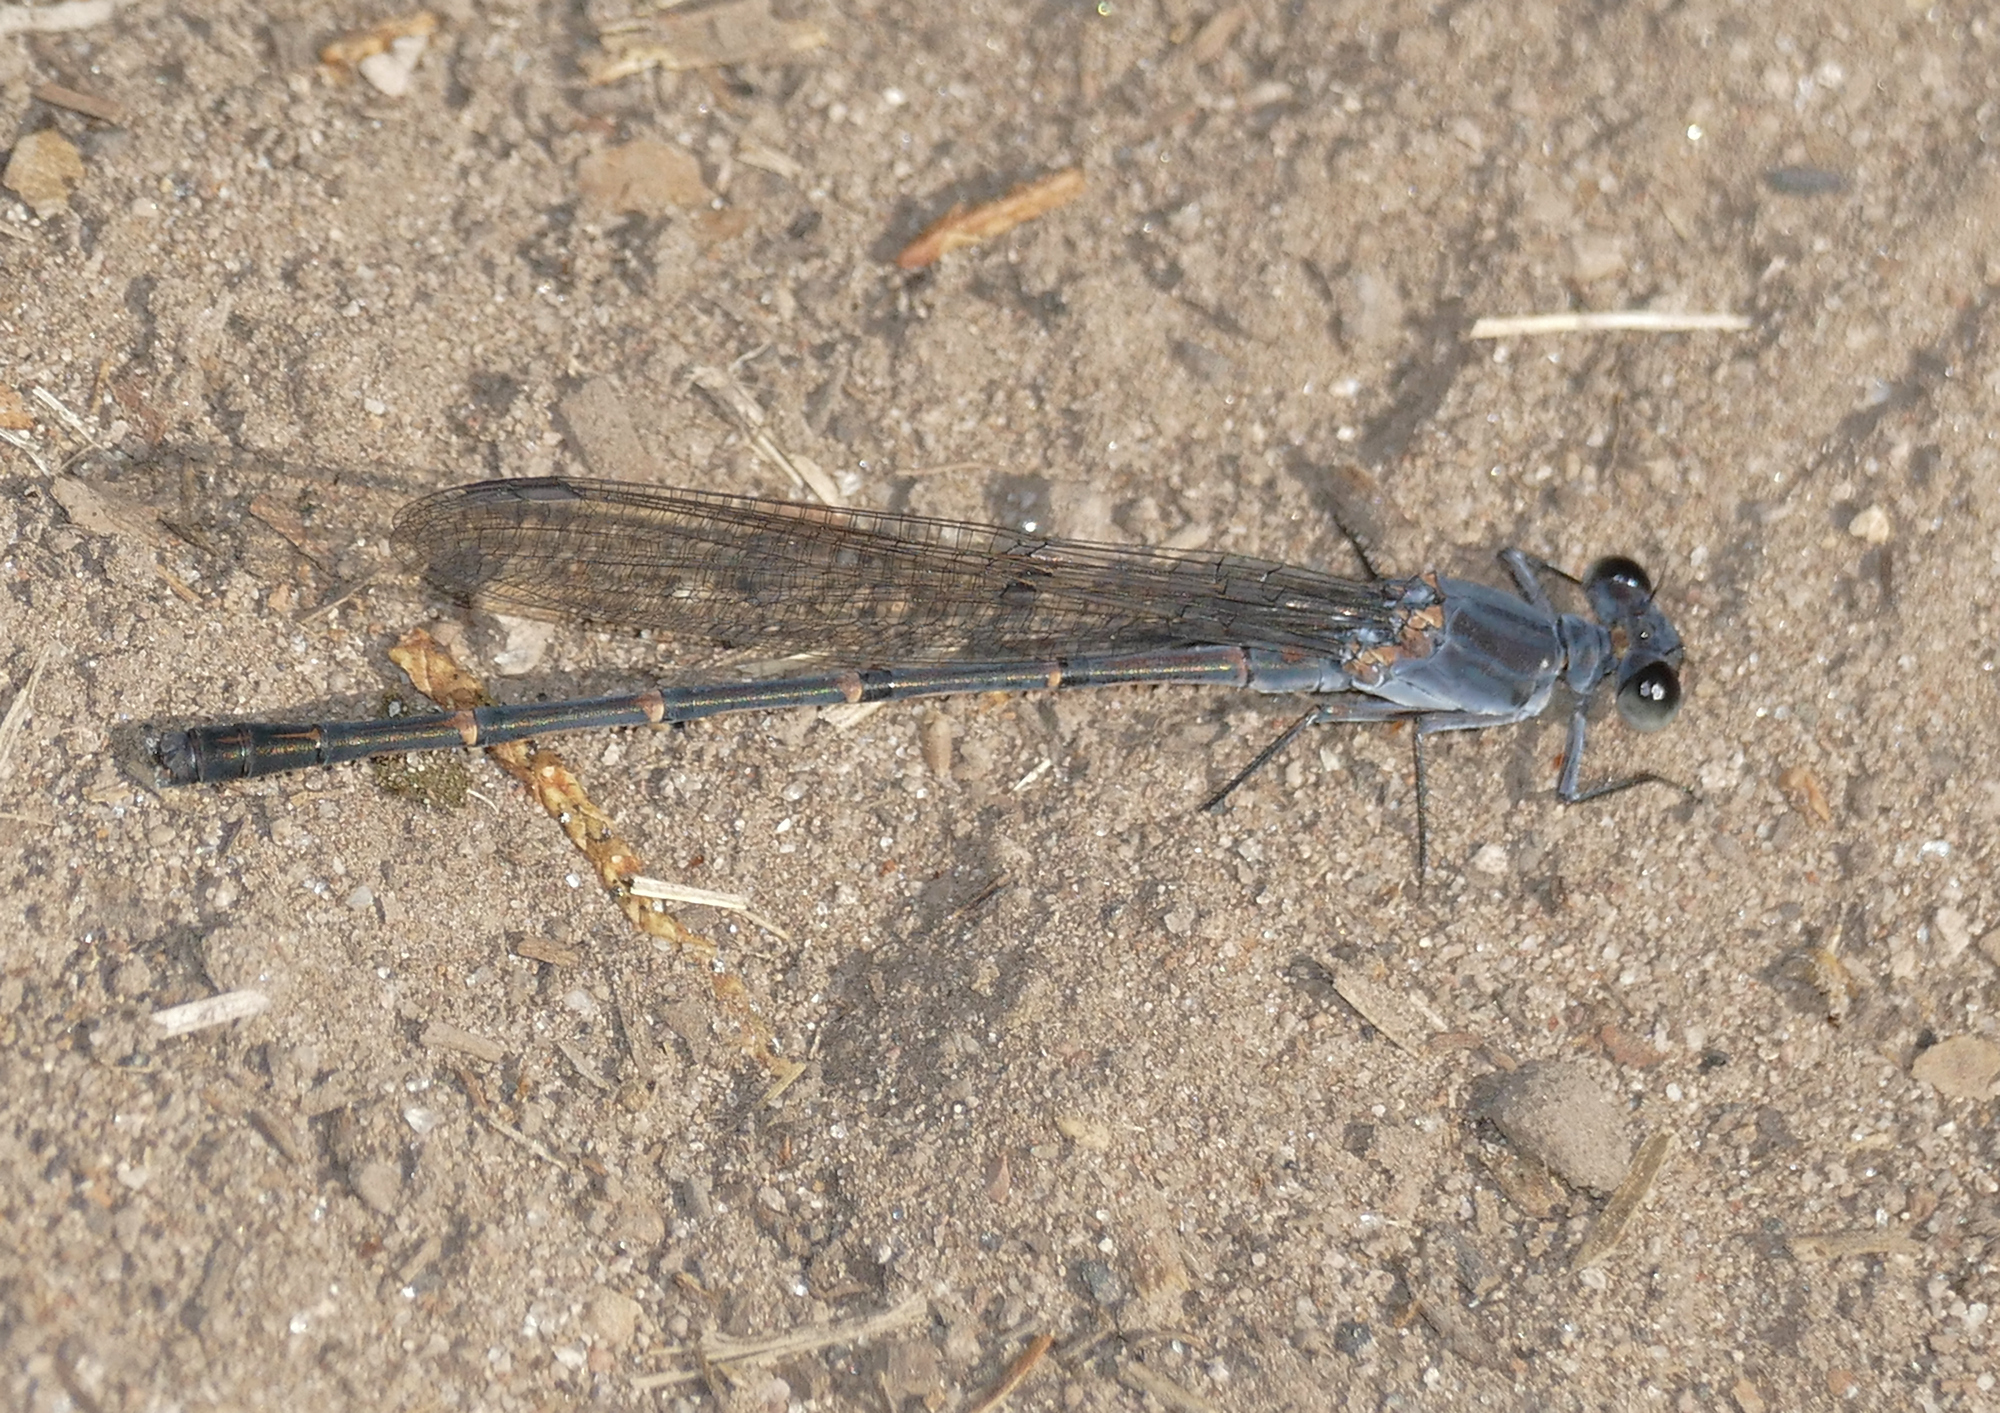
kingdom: Animalia
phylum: Arthropoda
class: Insecta
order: Odonata
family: Coenagrionidae
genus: Argia
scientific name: Argia lugens
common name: Sooty dancer
